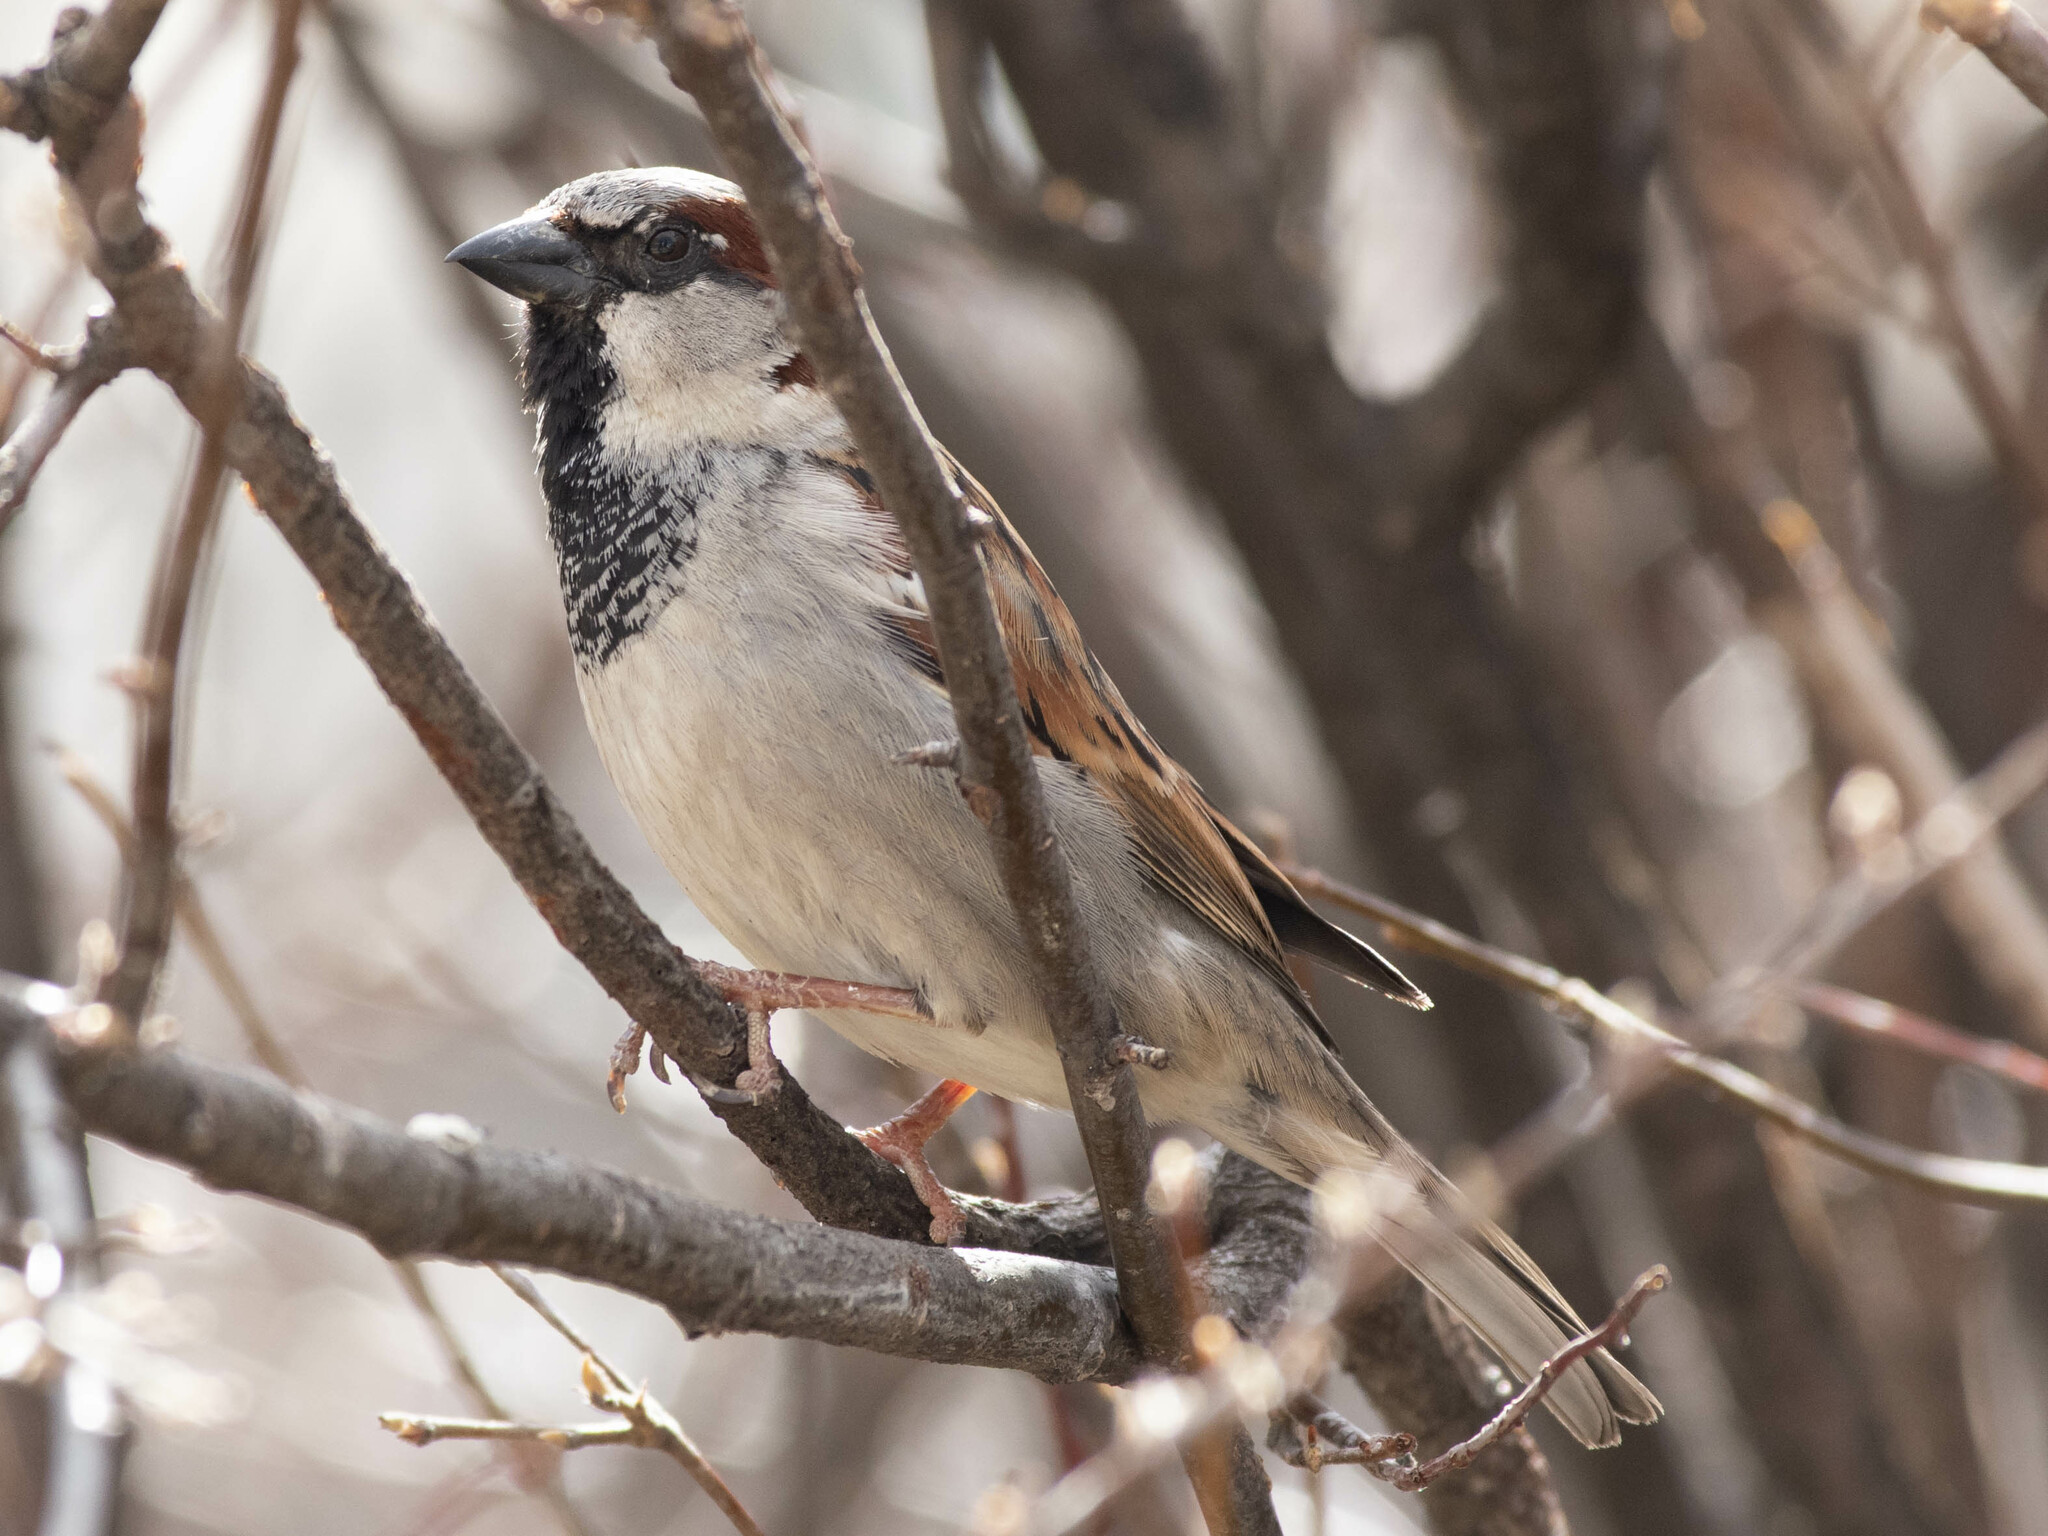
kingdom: Animalia
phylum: Chordata
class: Aves
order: Passeriformes
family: Passeridae
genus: Passer
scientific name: Passer domesticus
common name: House sparrow
